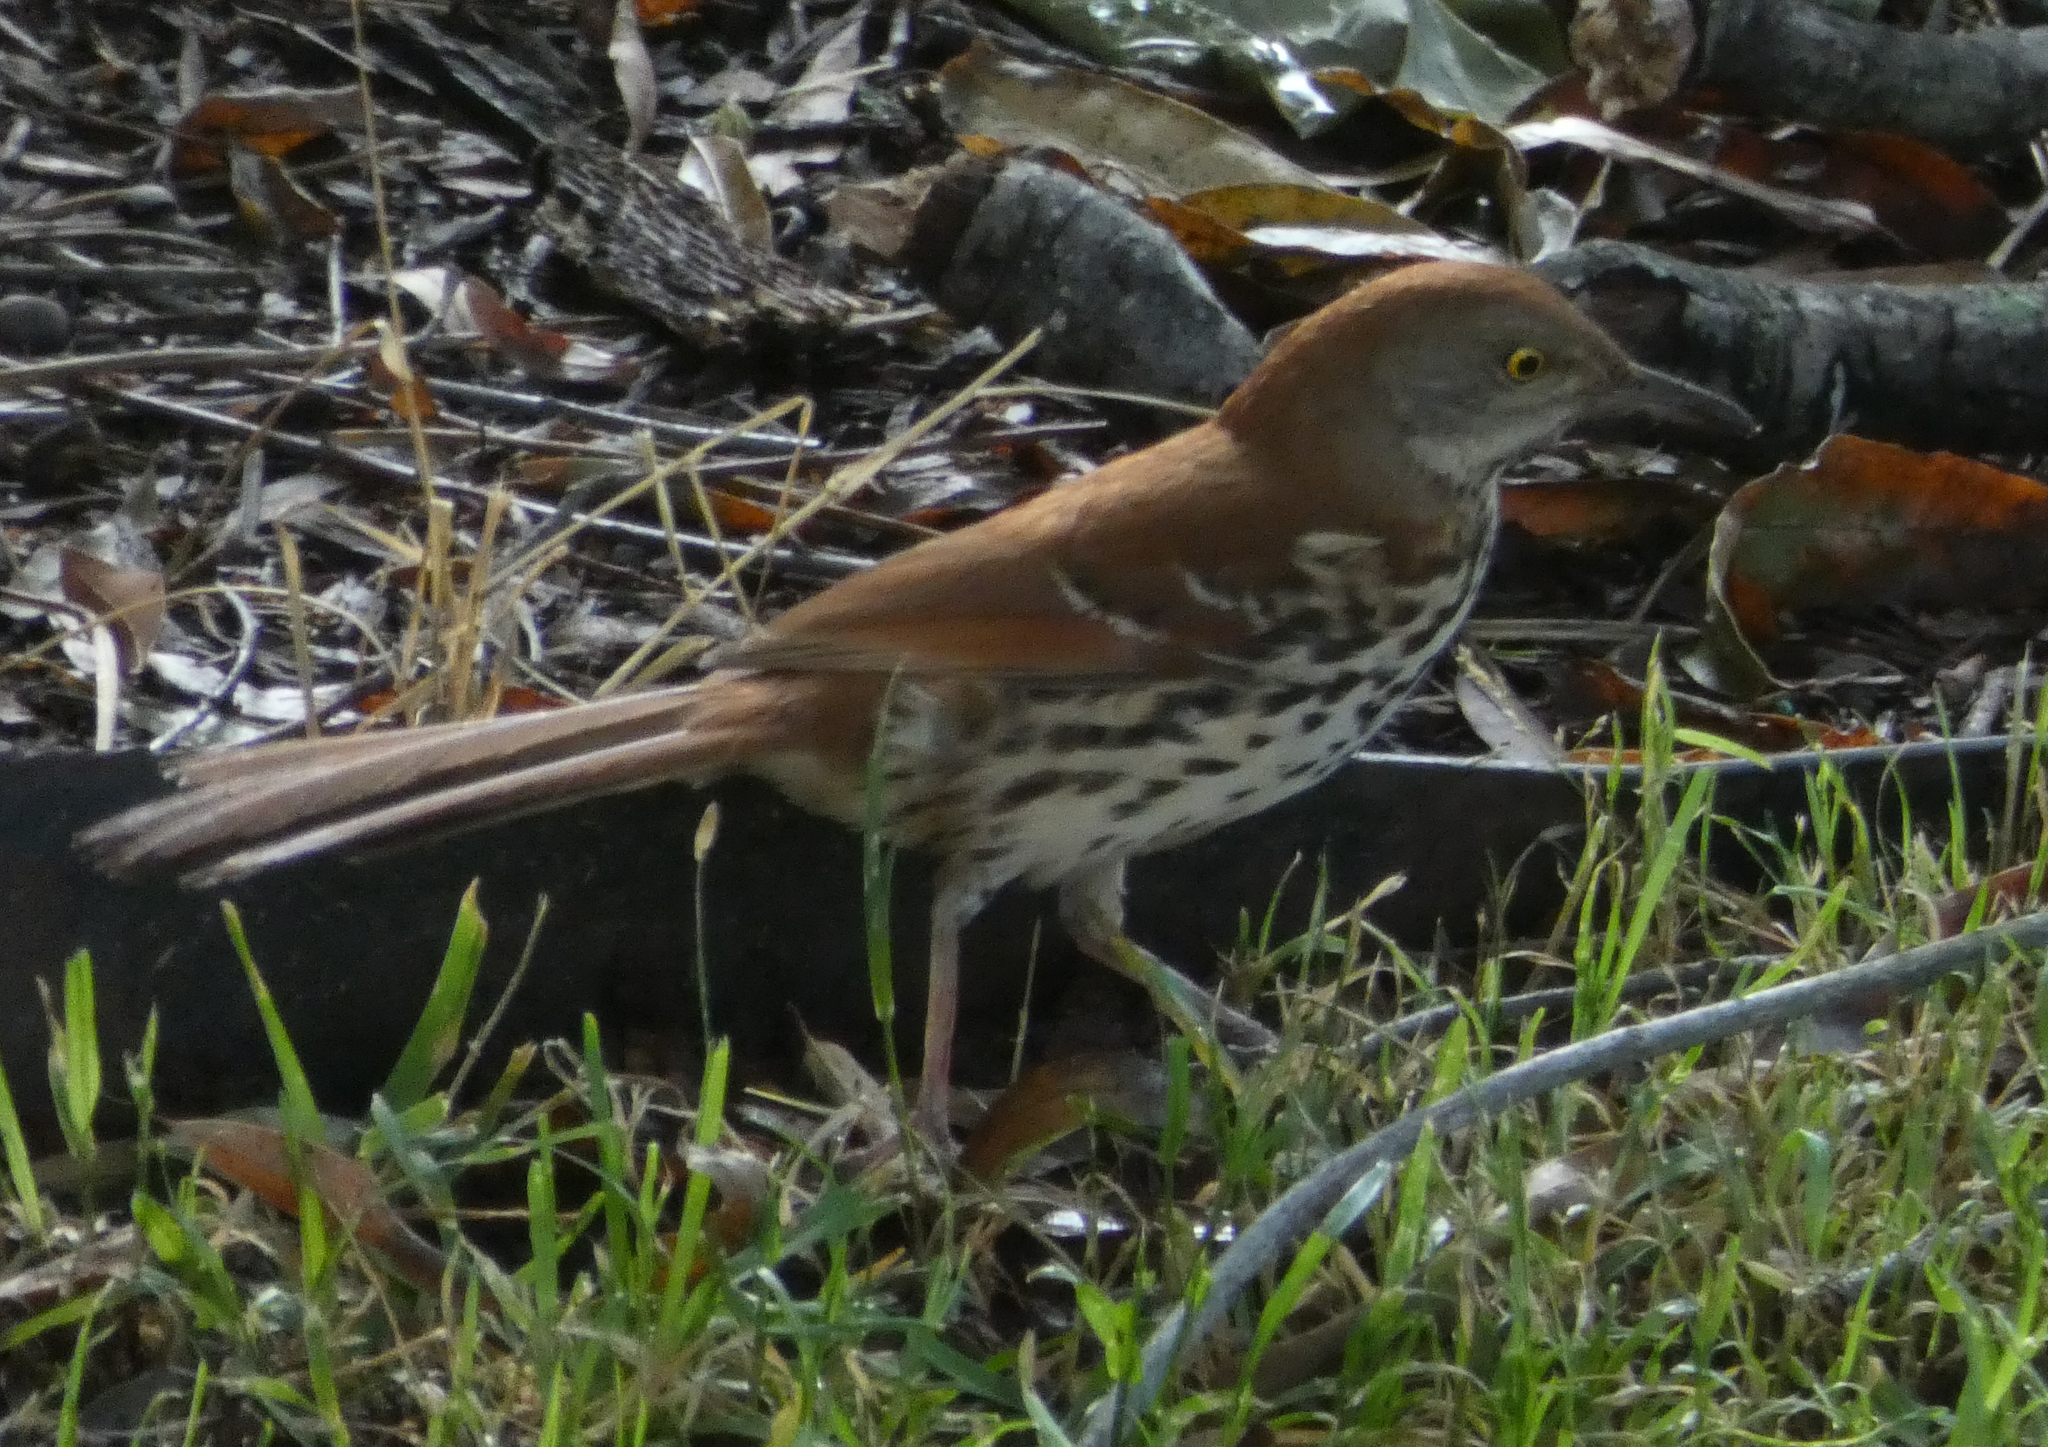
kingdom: Animalia
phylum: Chordata
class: Aves
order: Passeriformes
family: Mimidae
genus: Toxostoma
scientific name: Toxostoma rufum
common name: Brown thrasher
